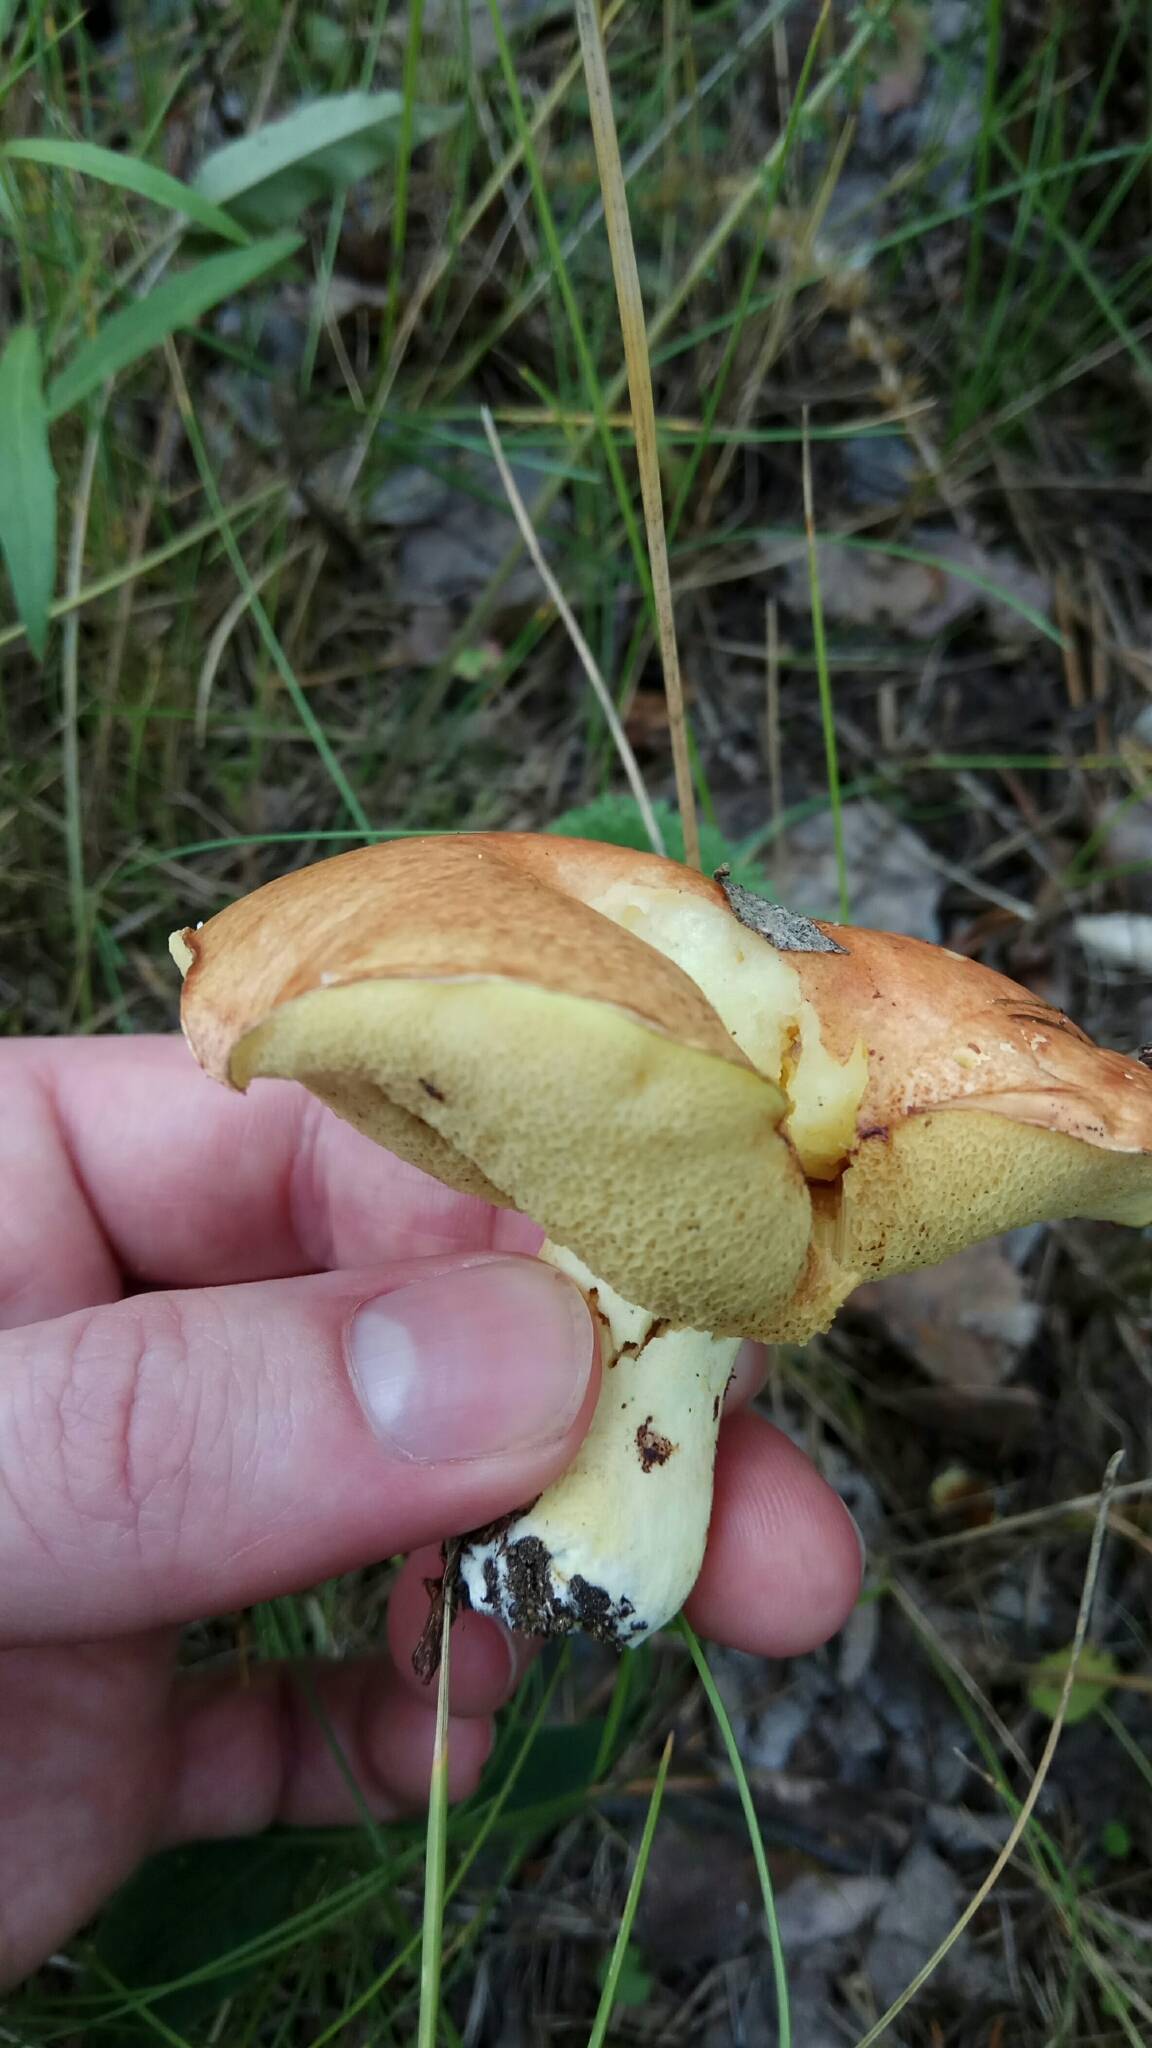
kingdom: Fungi
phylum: Basidiomycota
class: Agaricomycetes
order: Boletales
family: Suillaceae
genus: Suillus
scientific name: Suillus granulatus
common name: Weeping bolete
